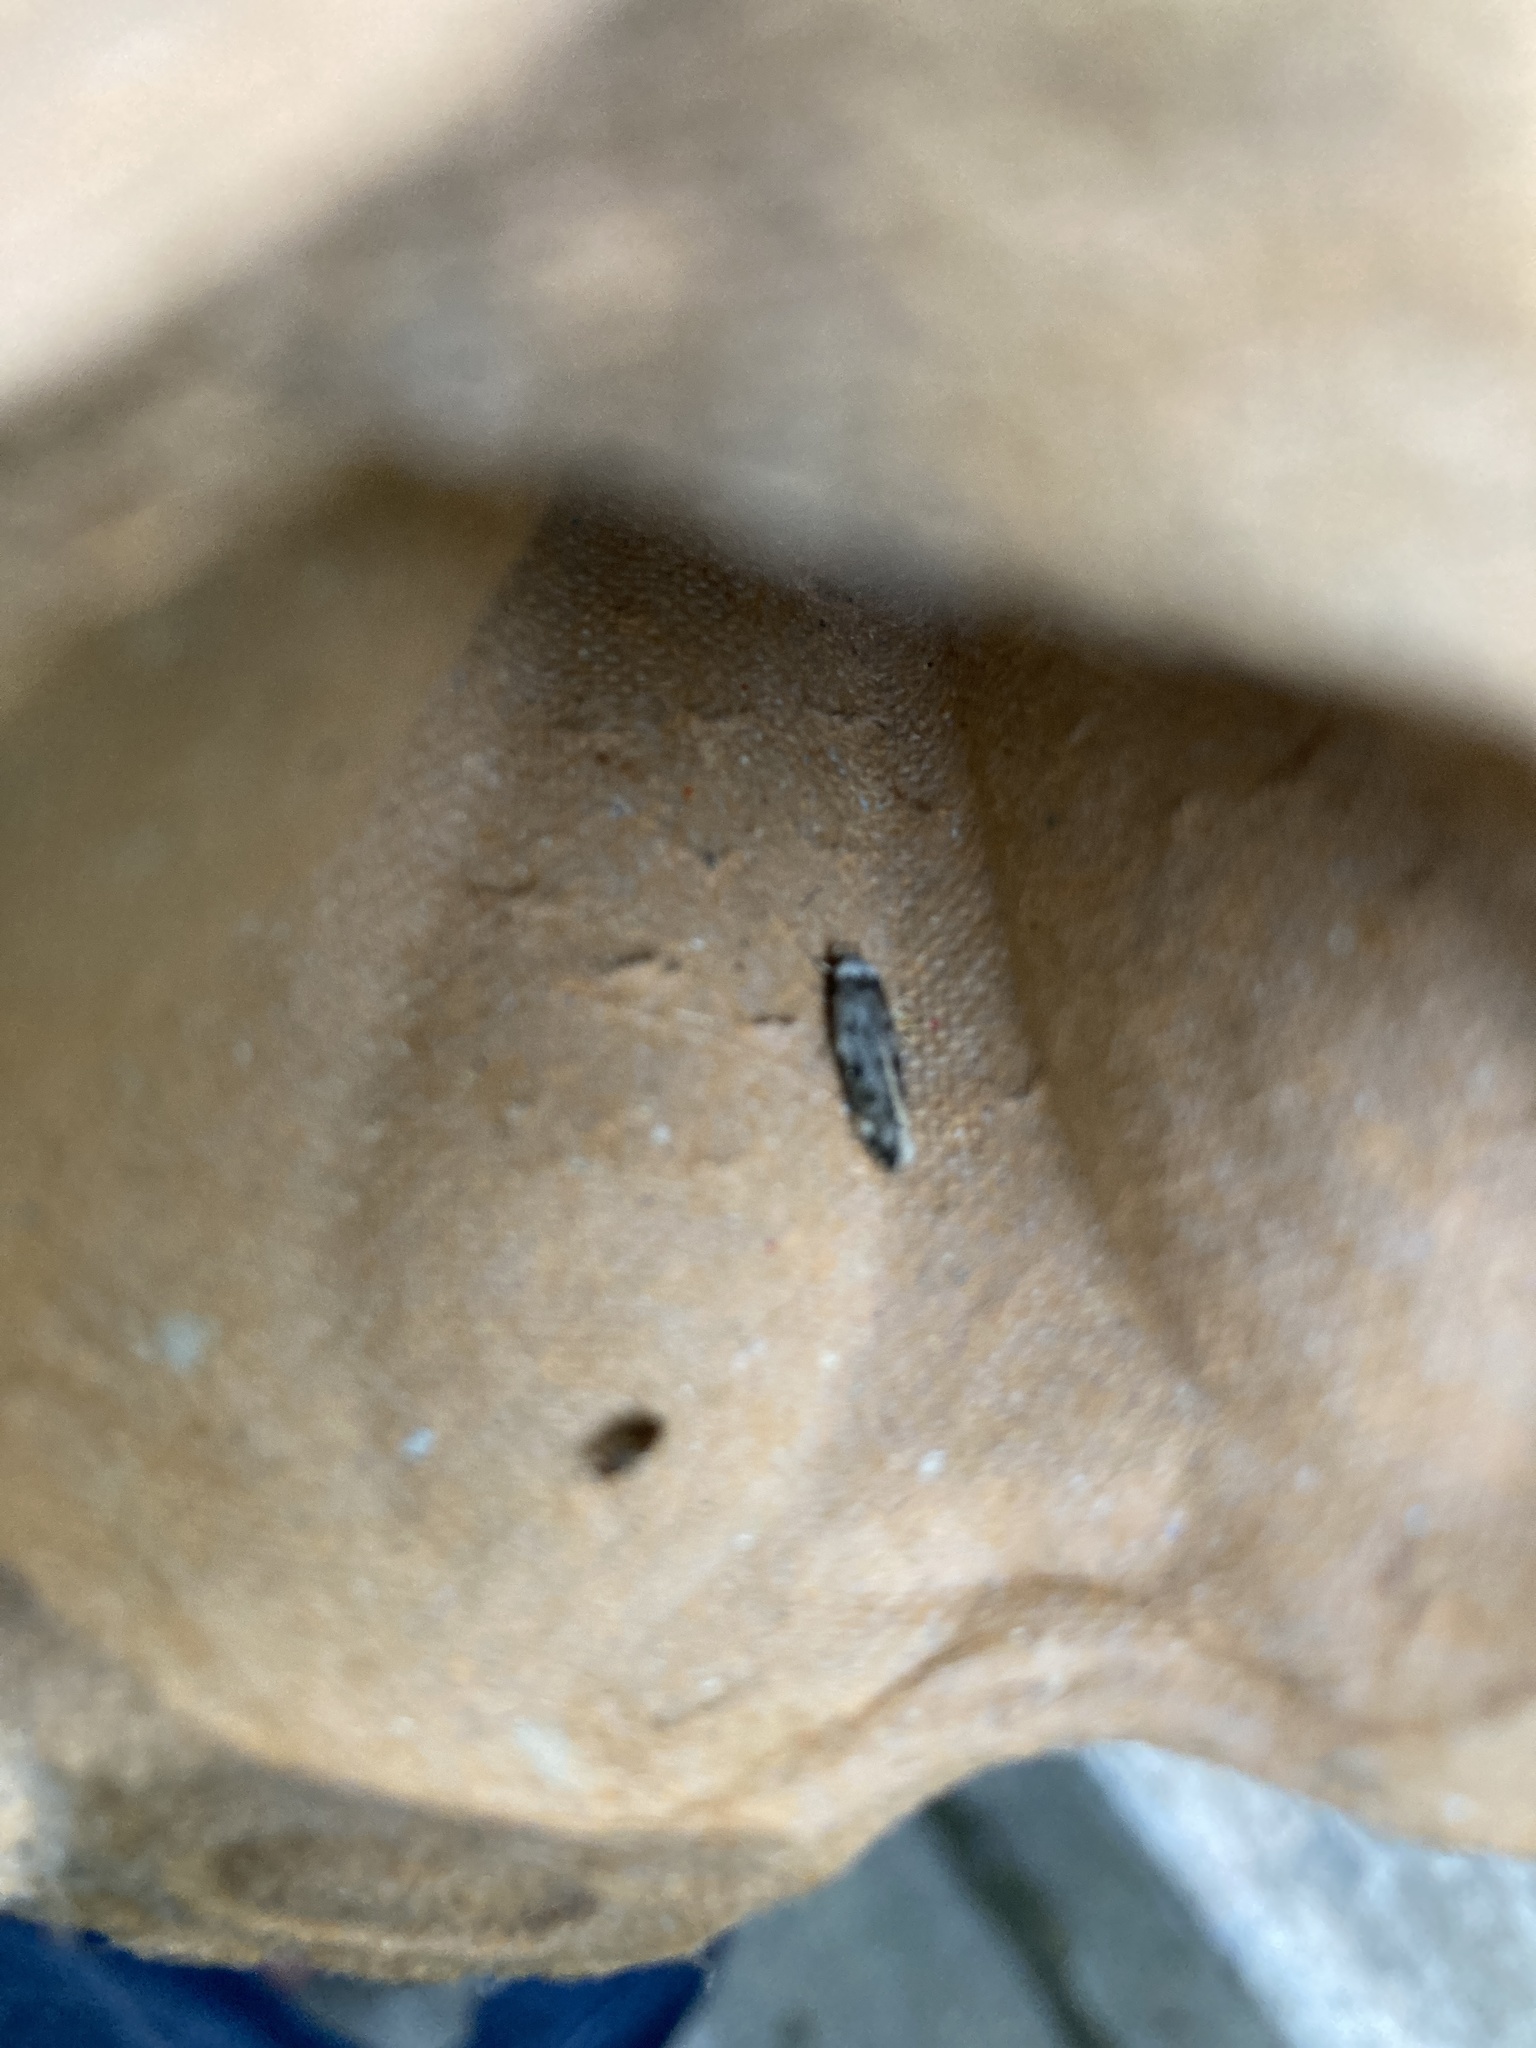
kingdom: Animalia
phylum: Arthropoda
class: Insecta
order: Lepidoptera
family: Oecophoridae
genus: Endrosis
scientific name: Endrosis sarcitrella
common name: White-shouldered house moth
